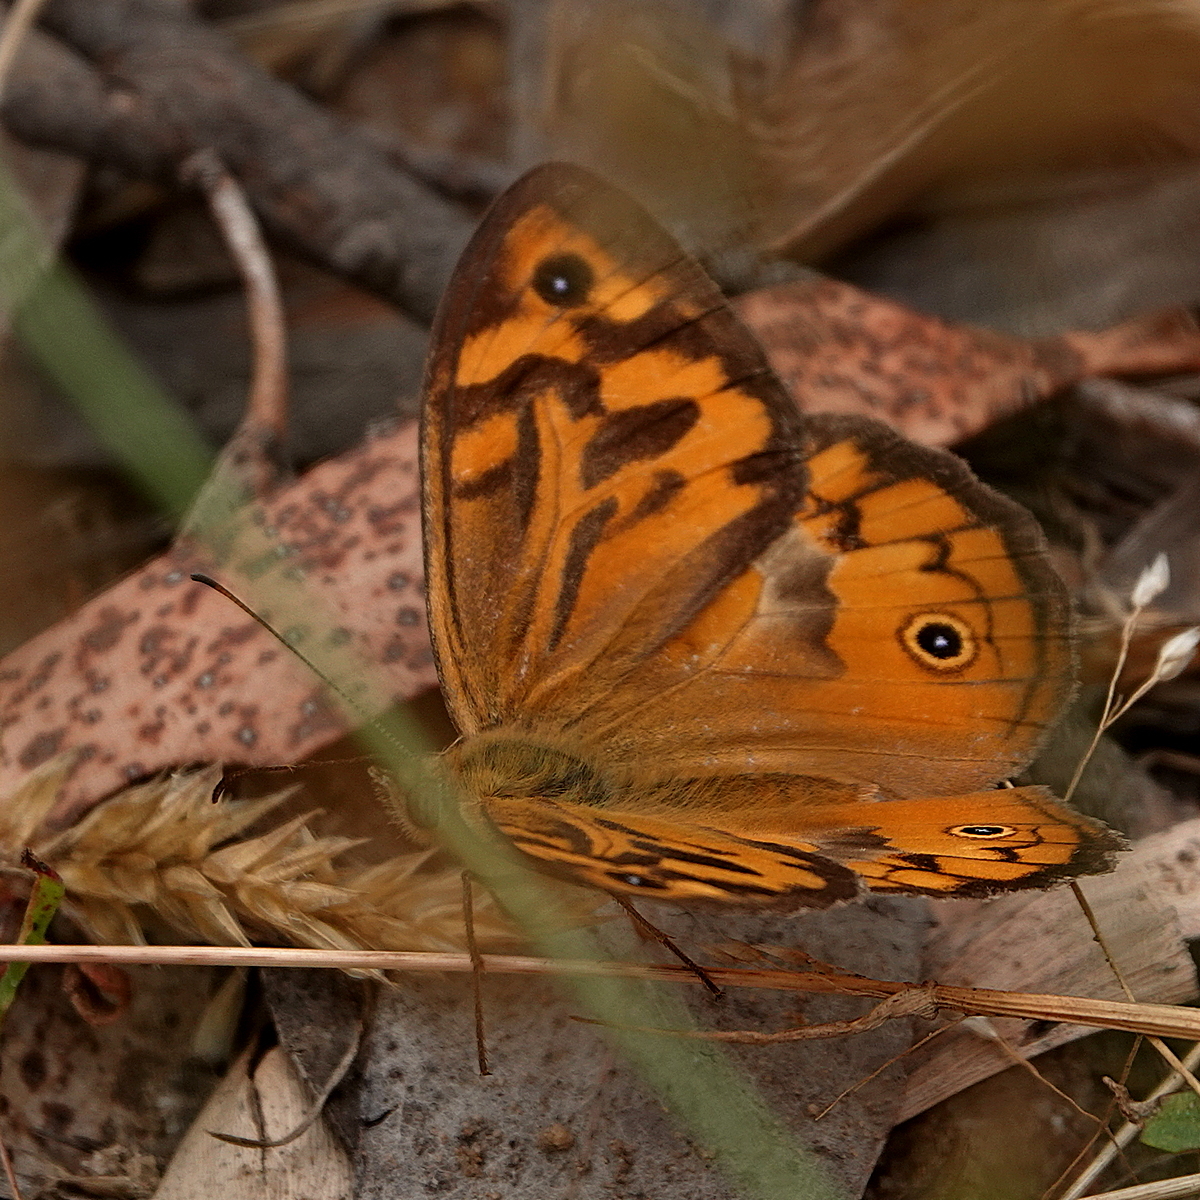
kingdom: Animalia
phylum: Arthropoda
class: Insecta
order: Lepidoptera
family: Nymphalidae
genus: Heteronympha
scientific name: Heteronympha merope
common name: Common brown
